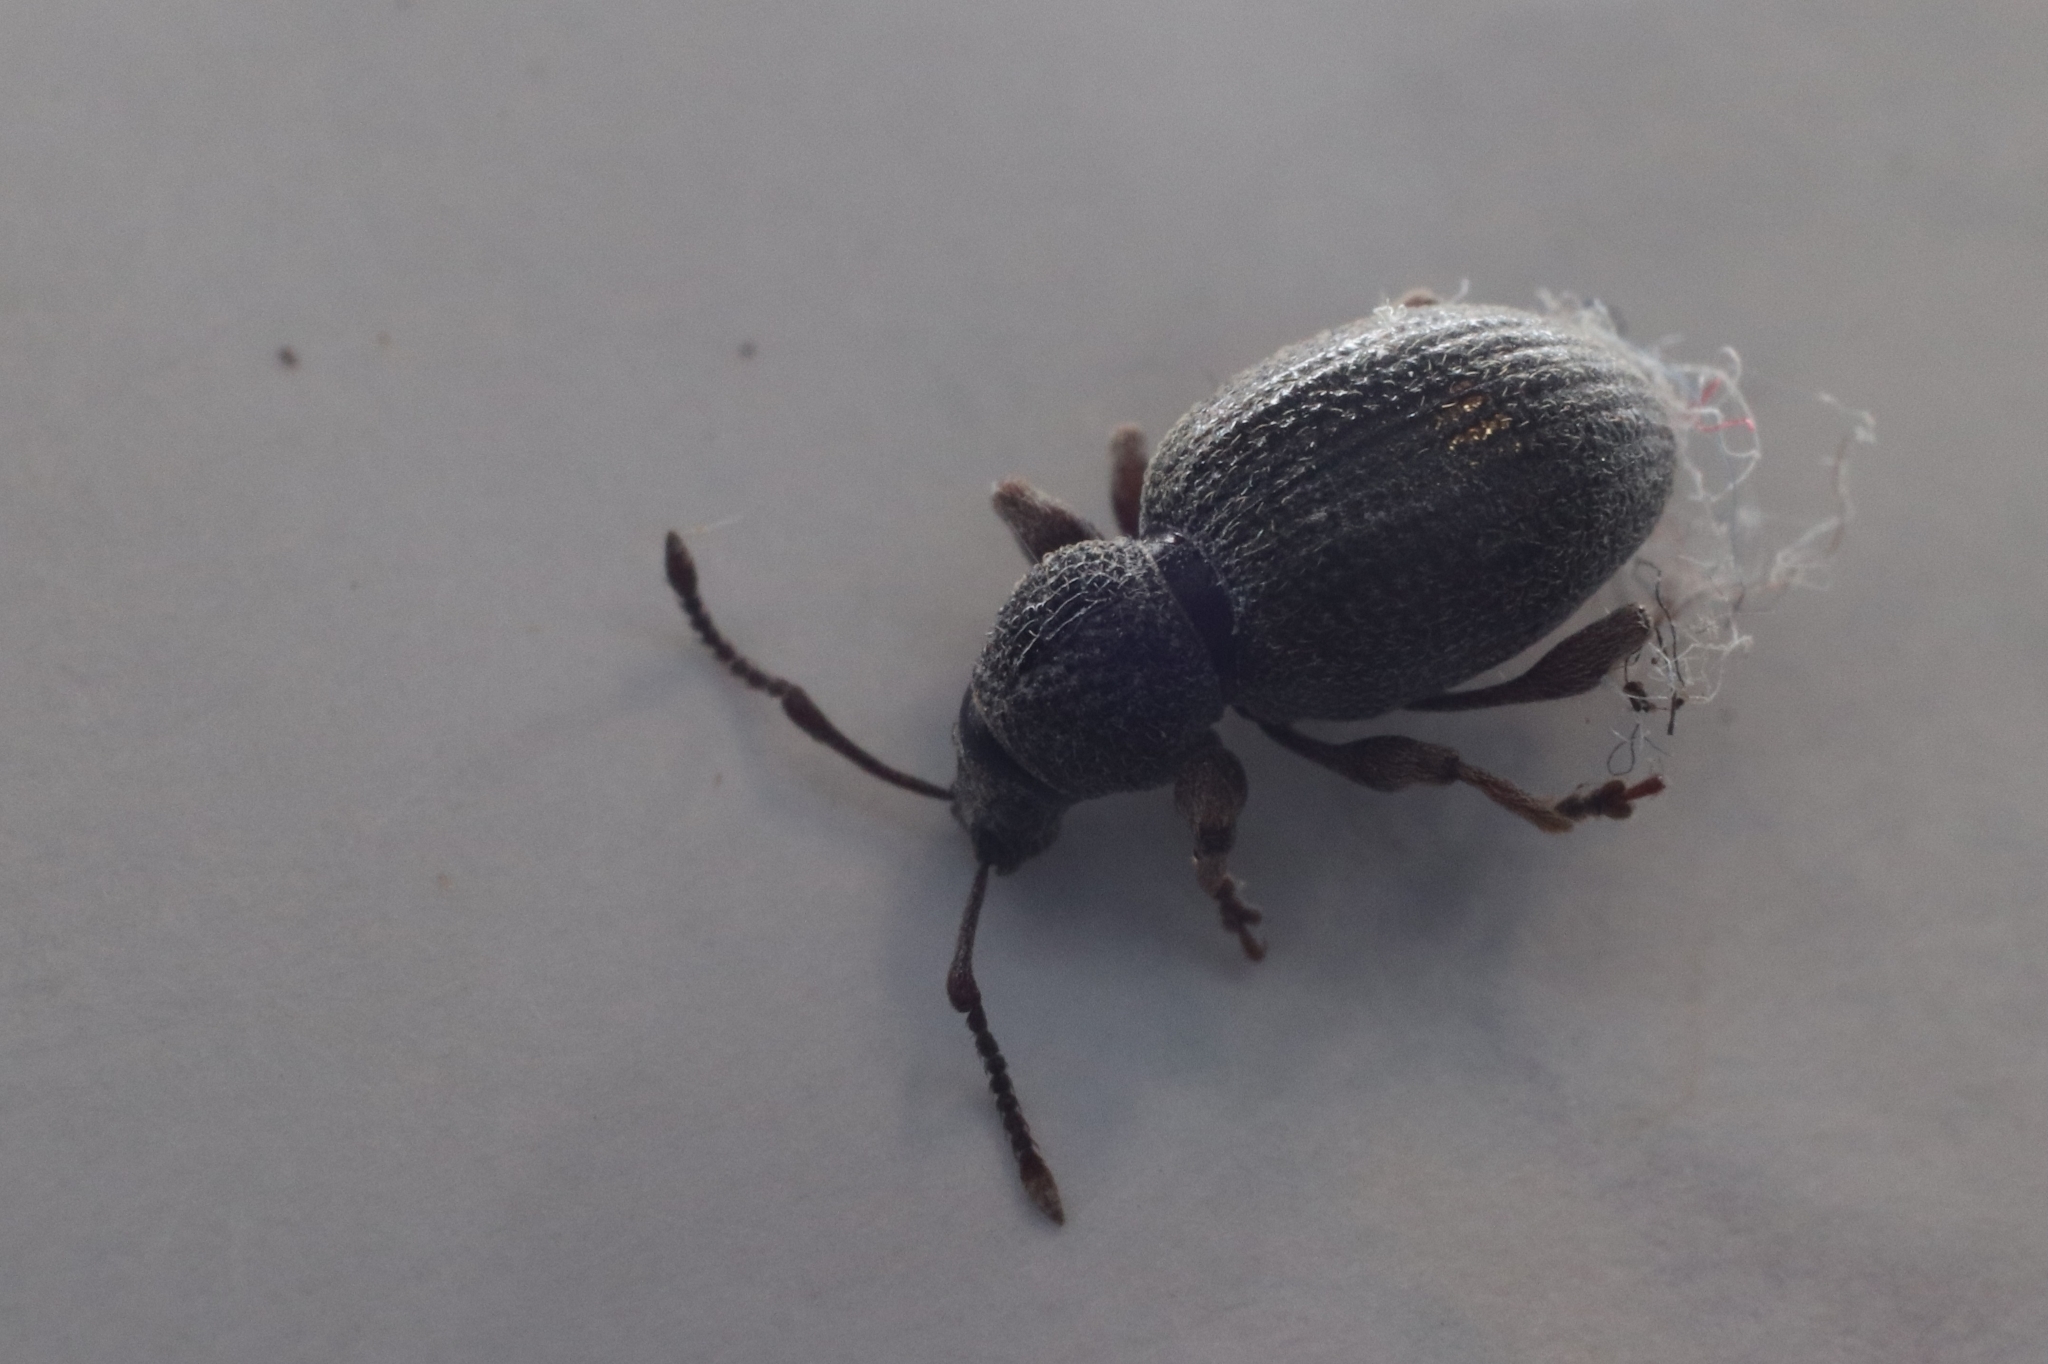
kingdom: Animalia
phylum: Arthropoda
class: Insecta
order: Coleoptera
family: Curculionidae
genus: Otiorhynchus
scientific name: Otiorhynchus ovatus
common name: Strawberry root weevil
